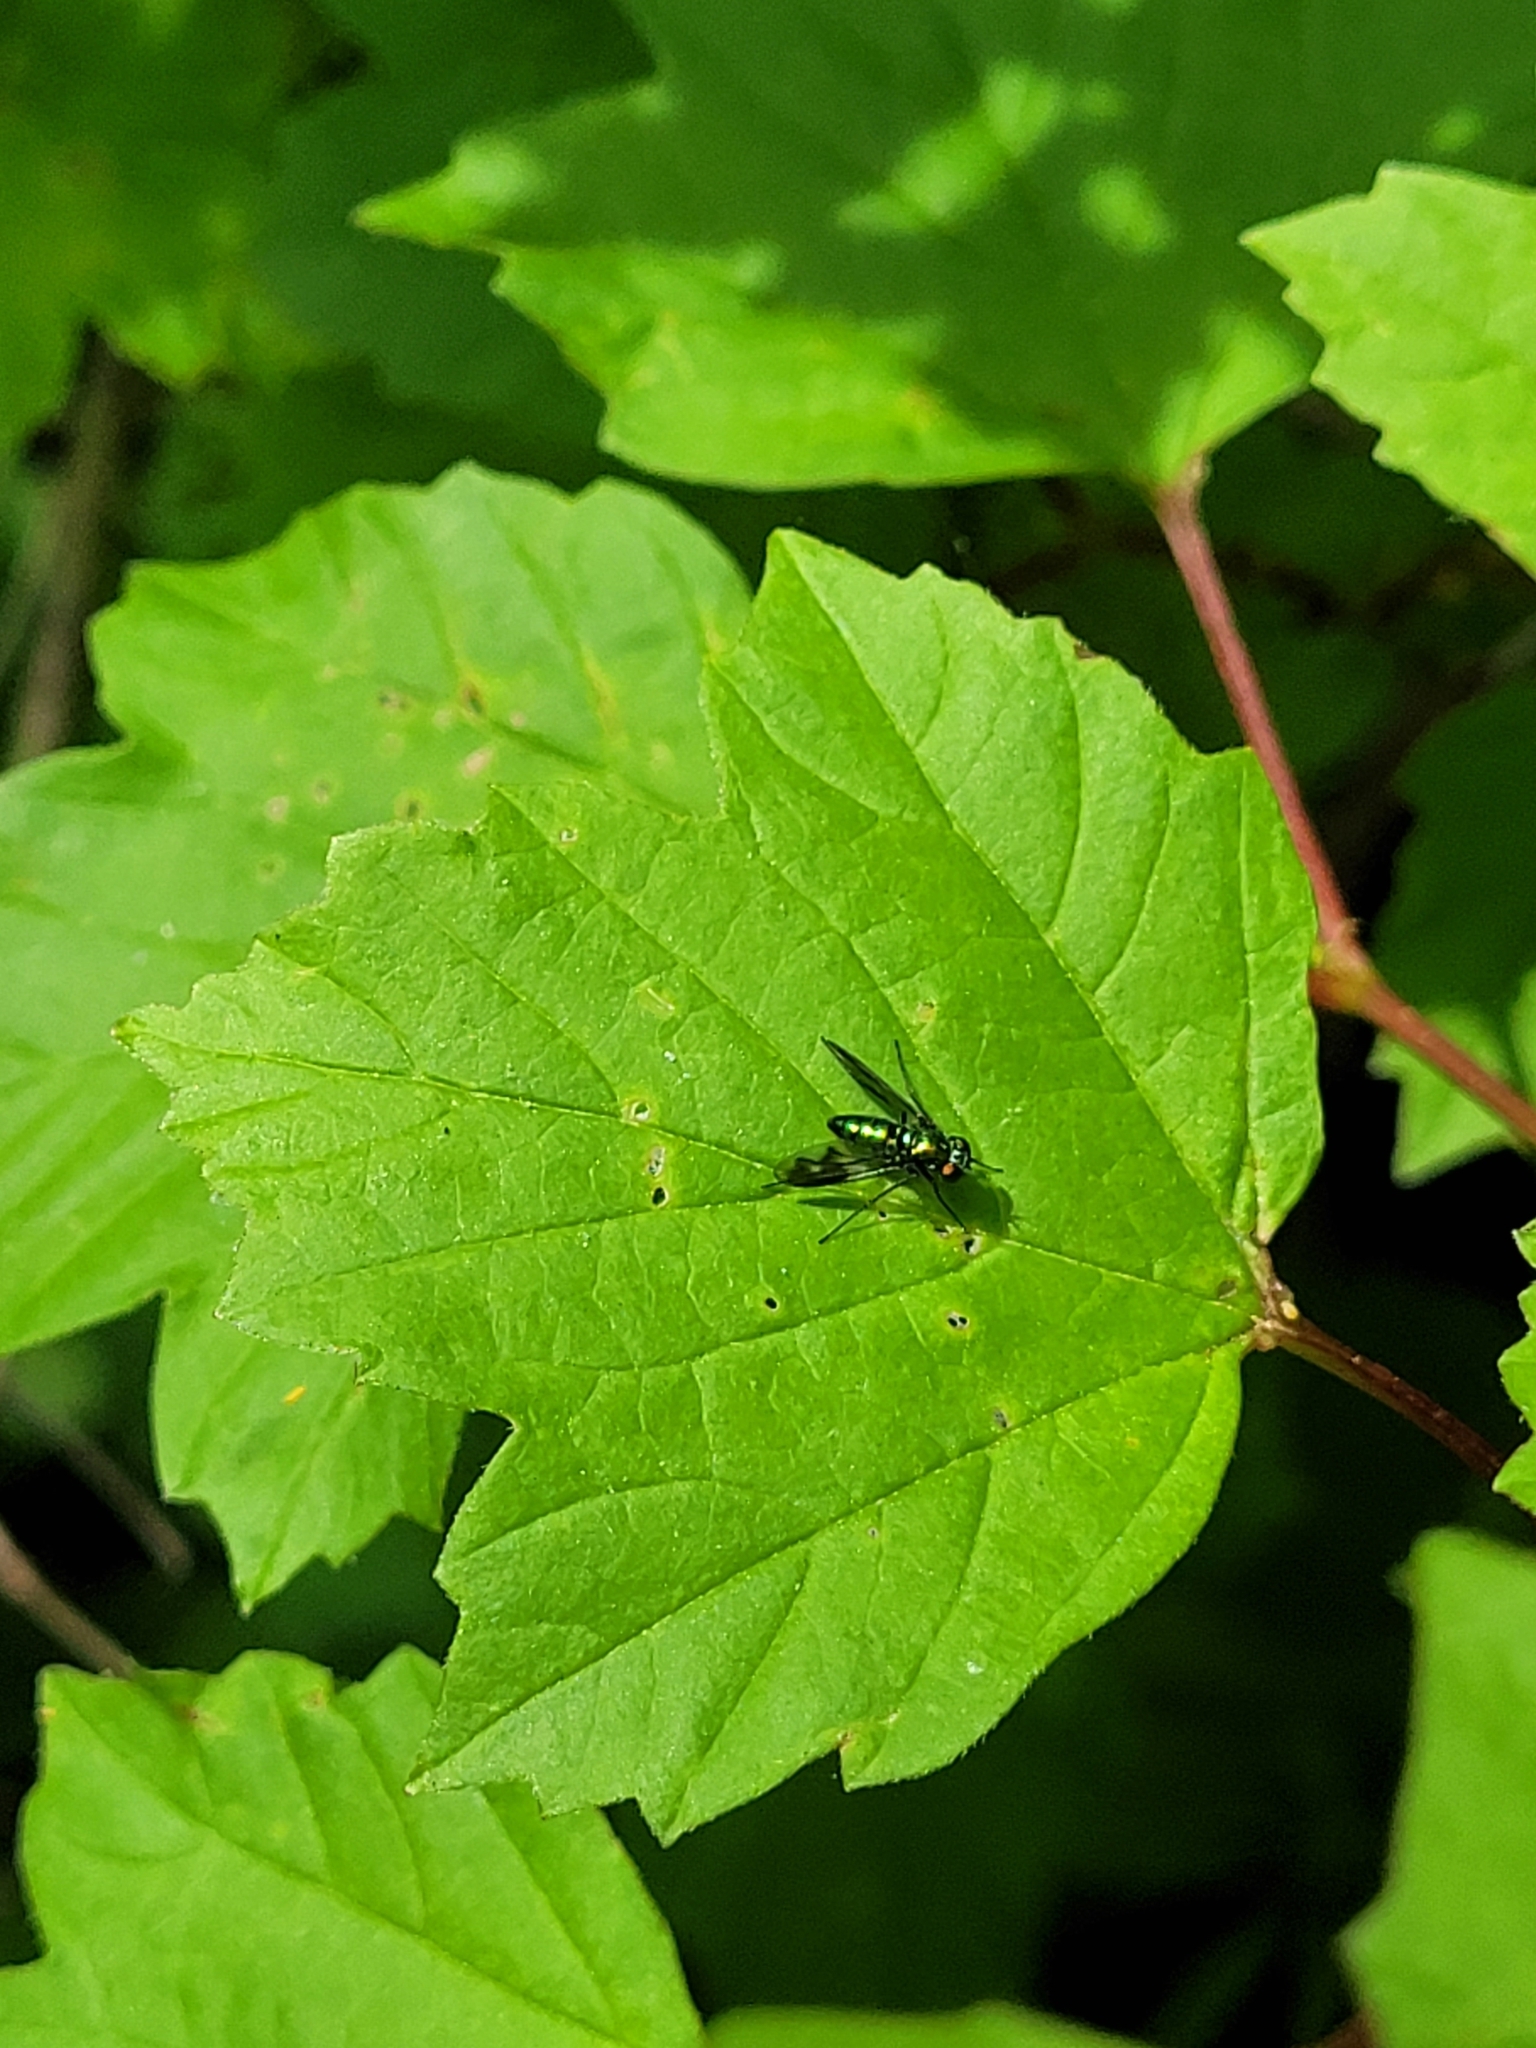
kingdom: Animalia
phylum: Arthropoda
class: Insecta
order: Diptera
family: Dolichopodidae
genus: Condylostylus
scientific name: Condylostylus patibulatus
